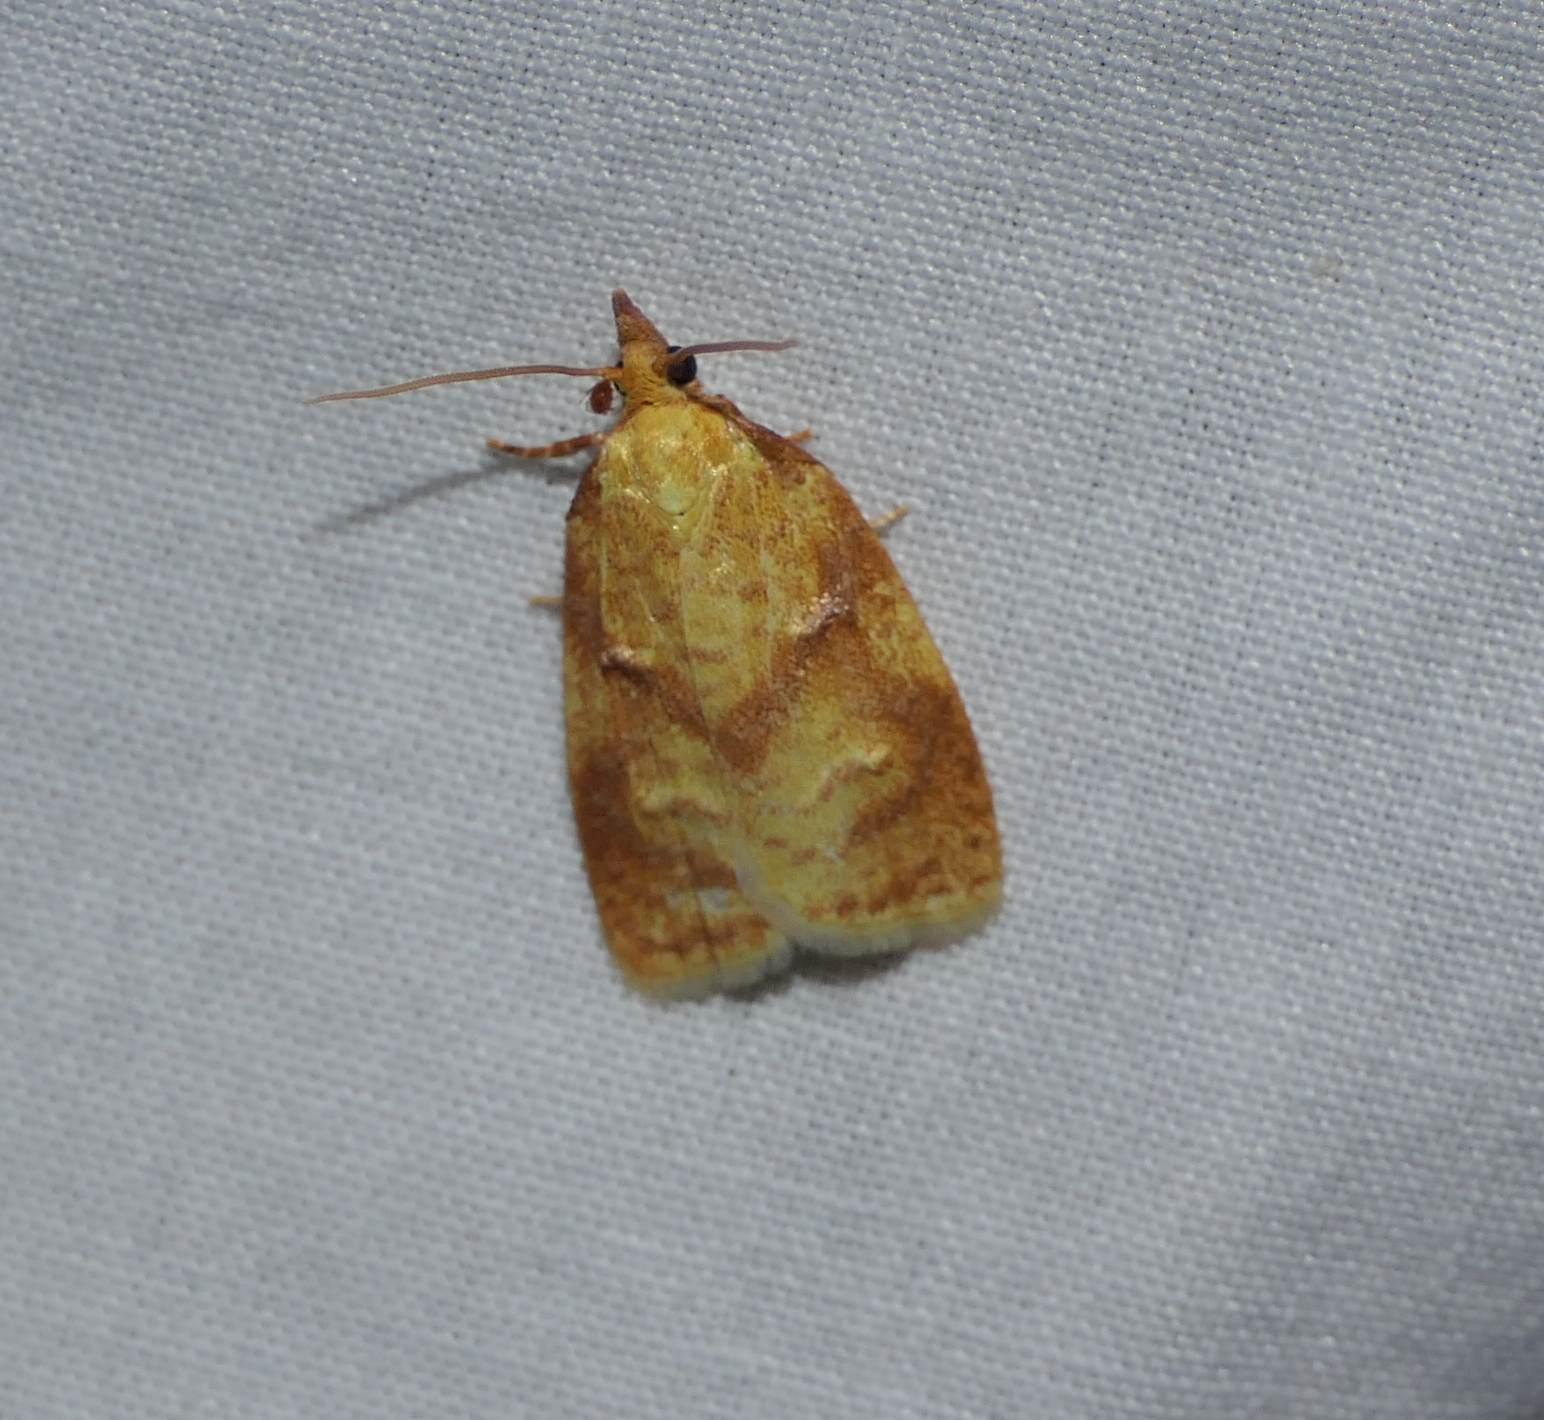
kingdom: Animalia
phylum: Arthropoda
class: Insecta
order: Lepidoptera
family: Tortricidae
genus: Cenopis
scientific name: Cenopis pettitana
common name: Maple-basswood leafroller moth
